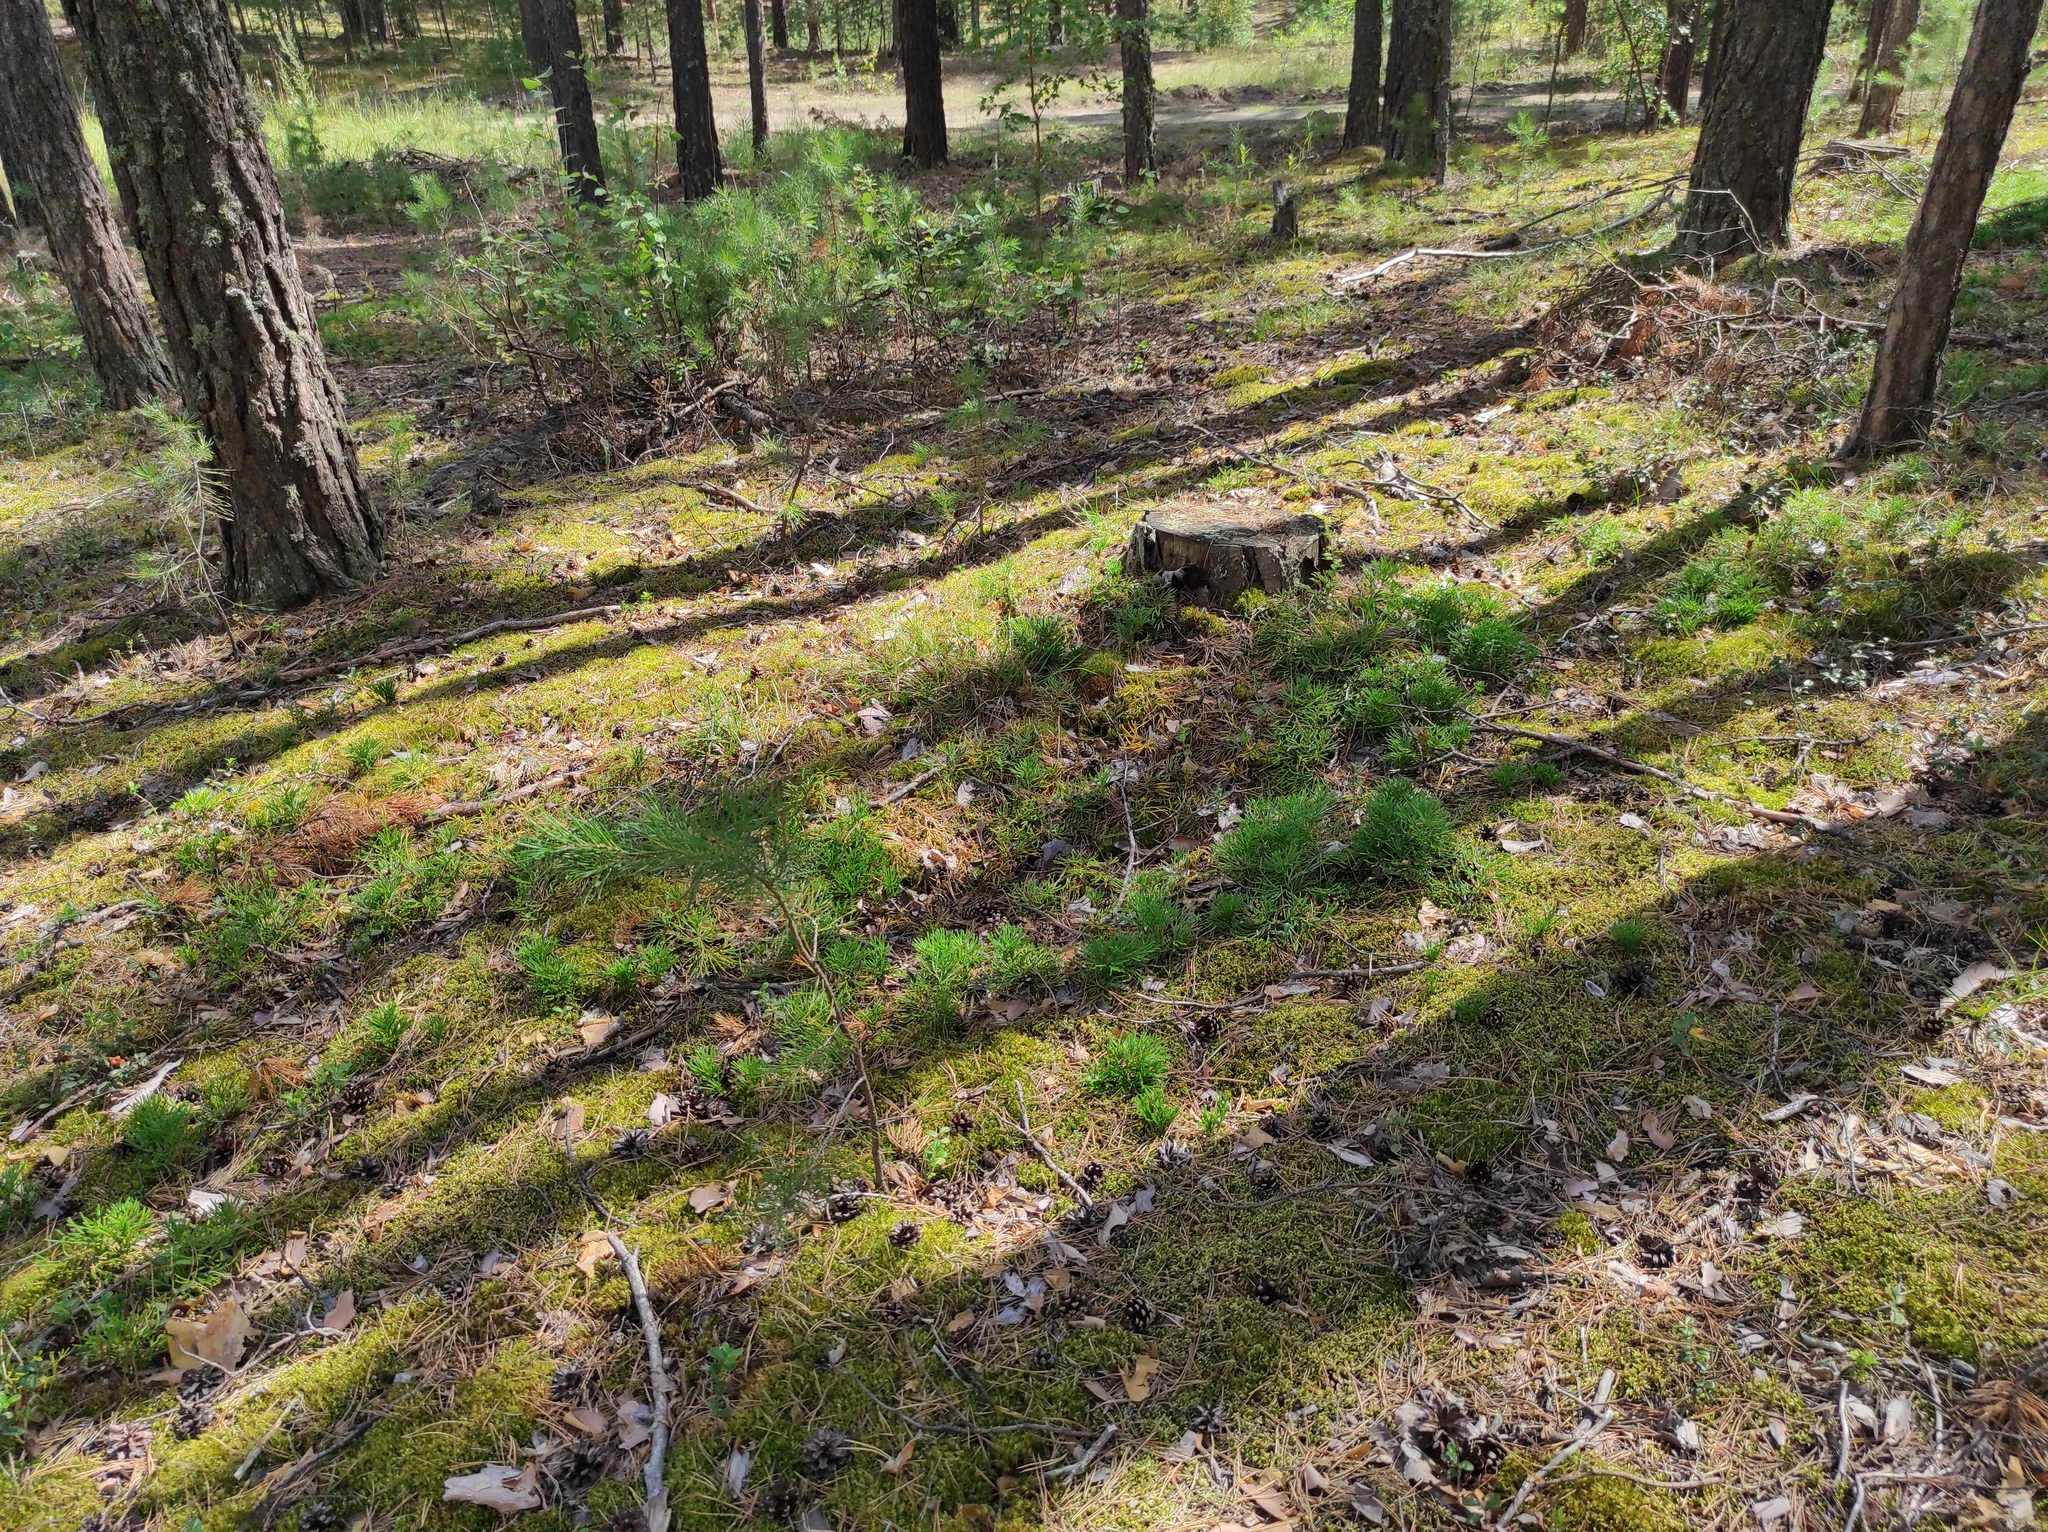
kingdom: Plantae
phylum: Tracheophyta
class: Lycopodiopsida
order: Lycopodiales
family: Lycopodiaceae
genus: Diphasiastrum
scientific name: Diphasiastrum complanatum
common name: Northern running-pine
